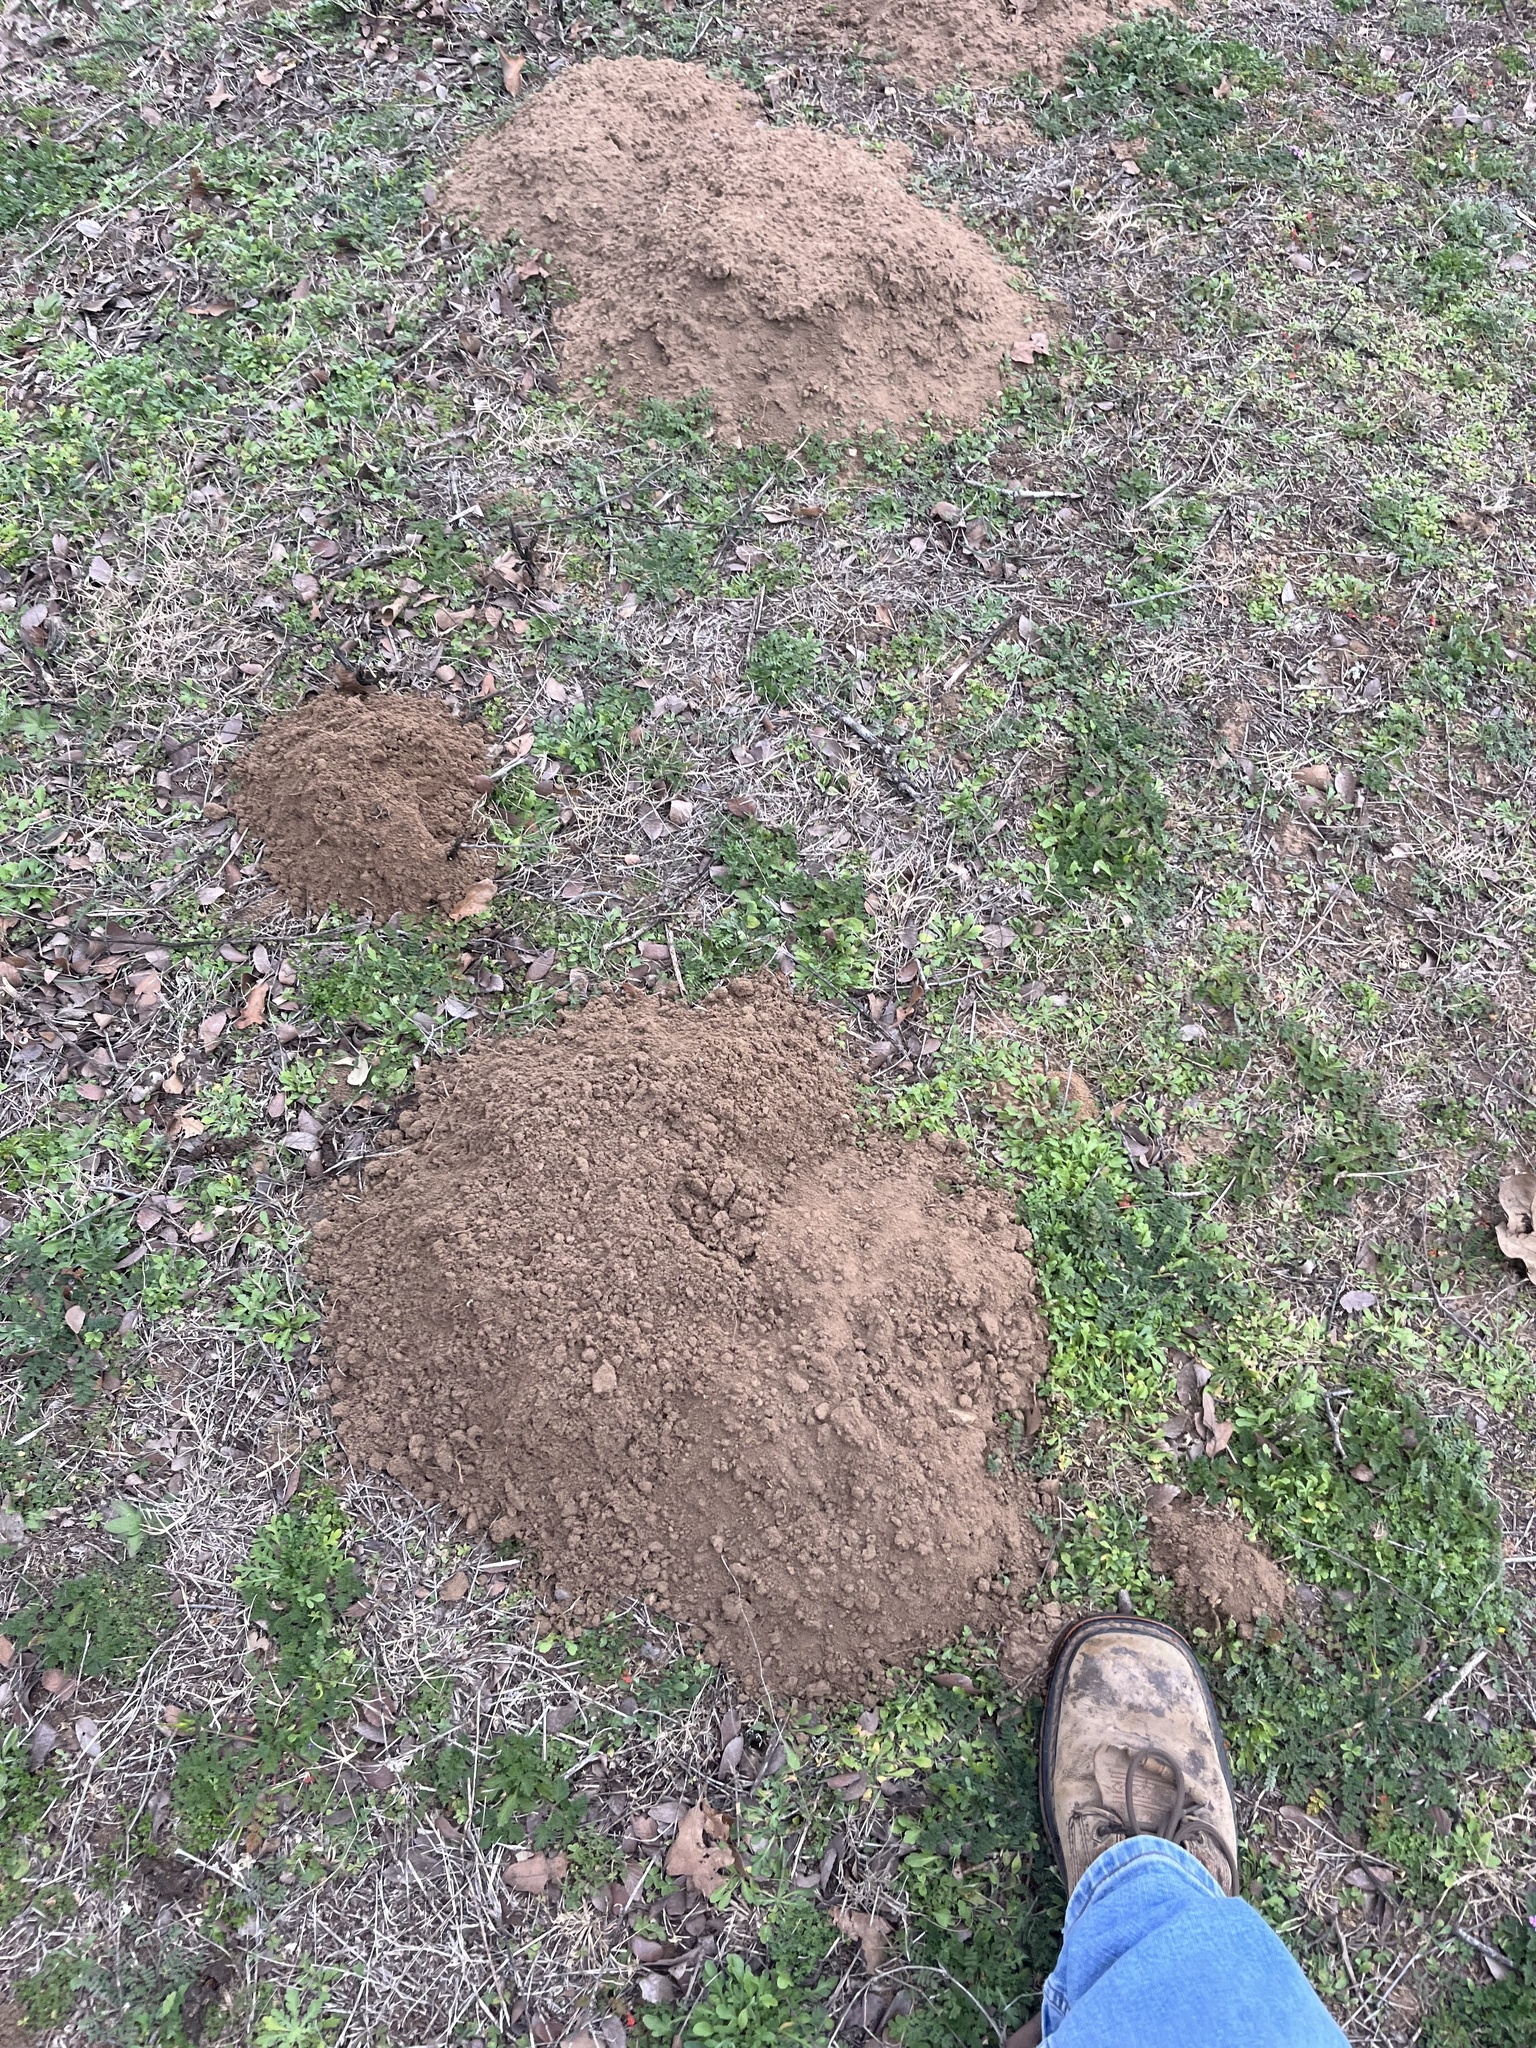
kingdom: Animalia
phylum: Chordata
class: Mammalia
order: Rodentia
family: Geomyidae
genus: Geomys
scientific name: Geomys texensis
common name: Llano pocket gopher
